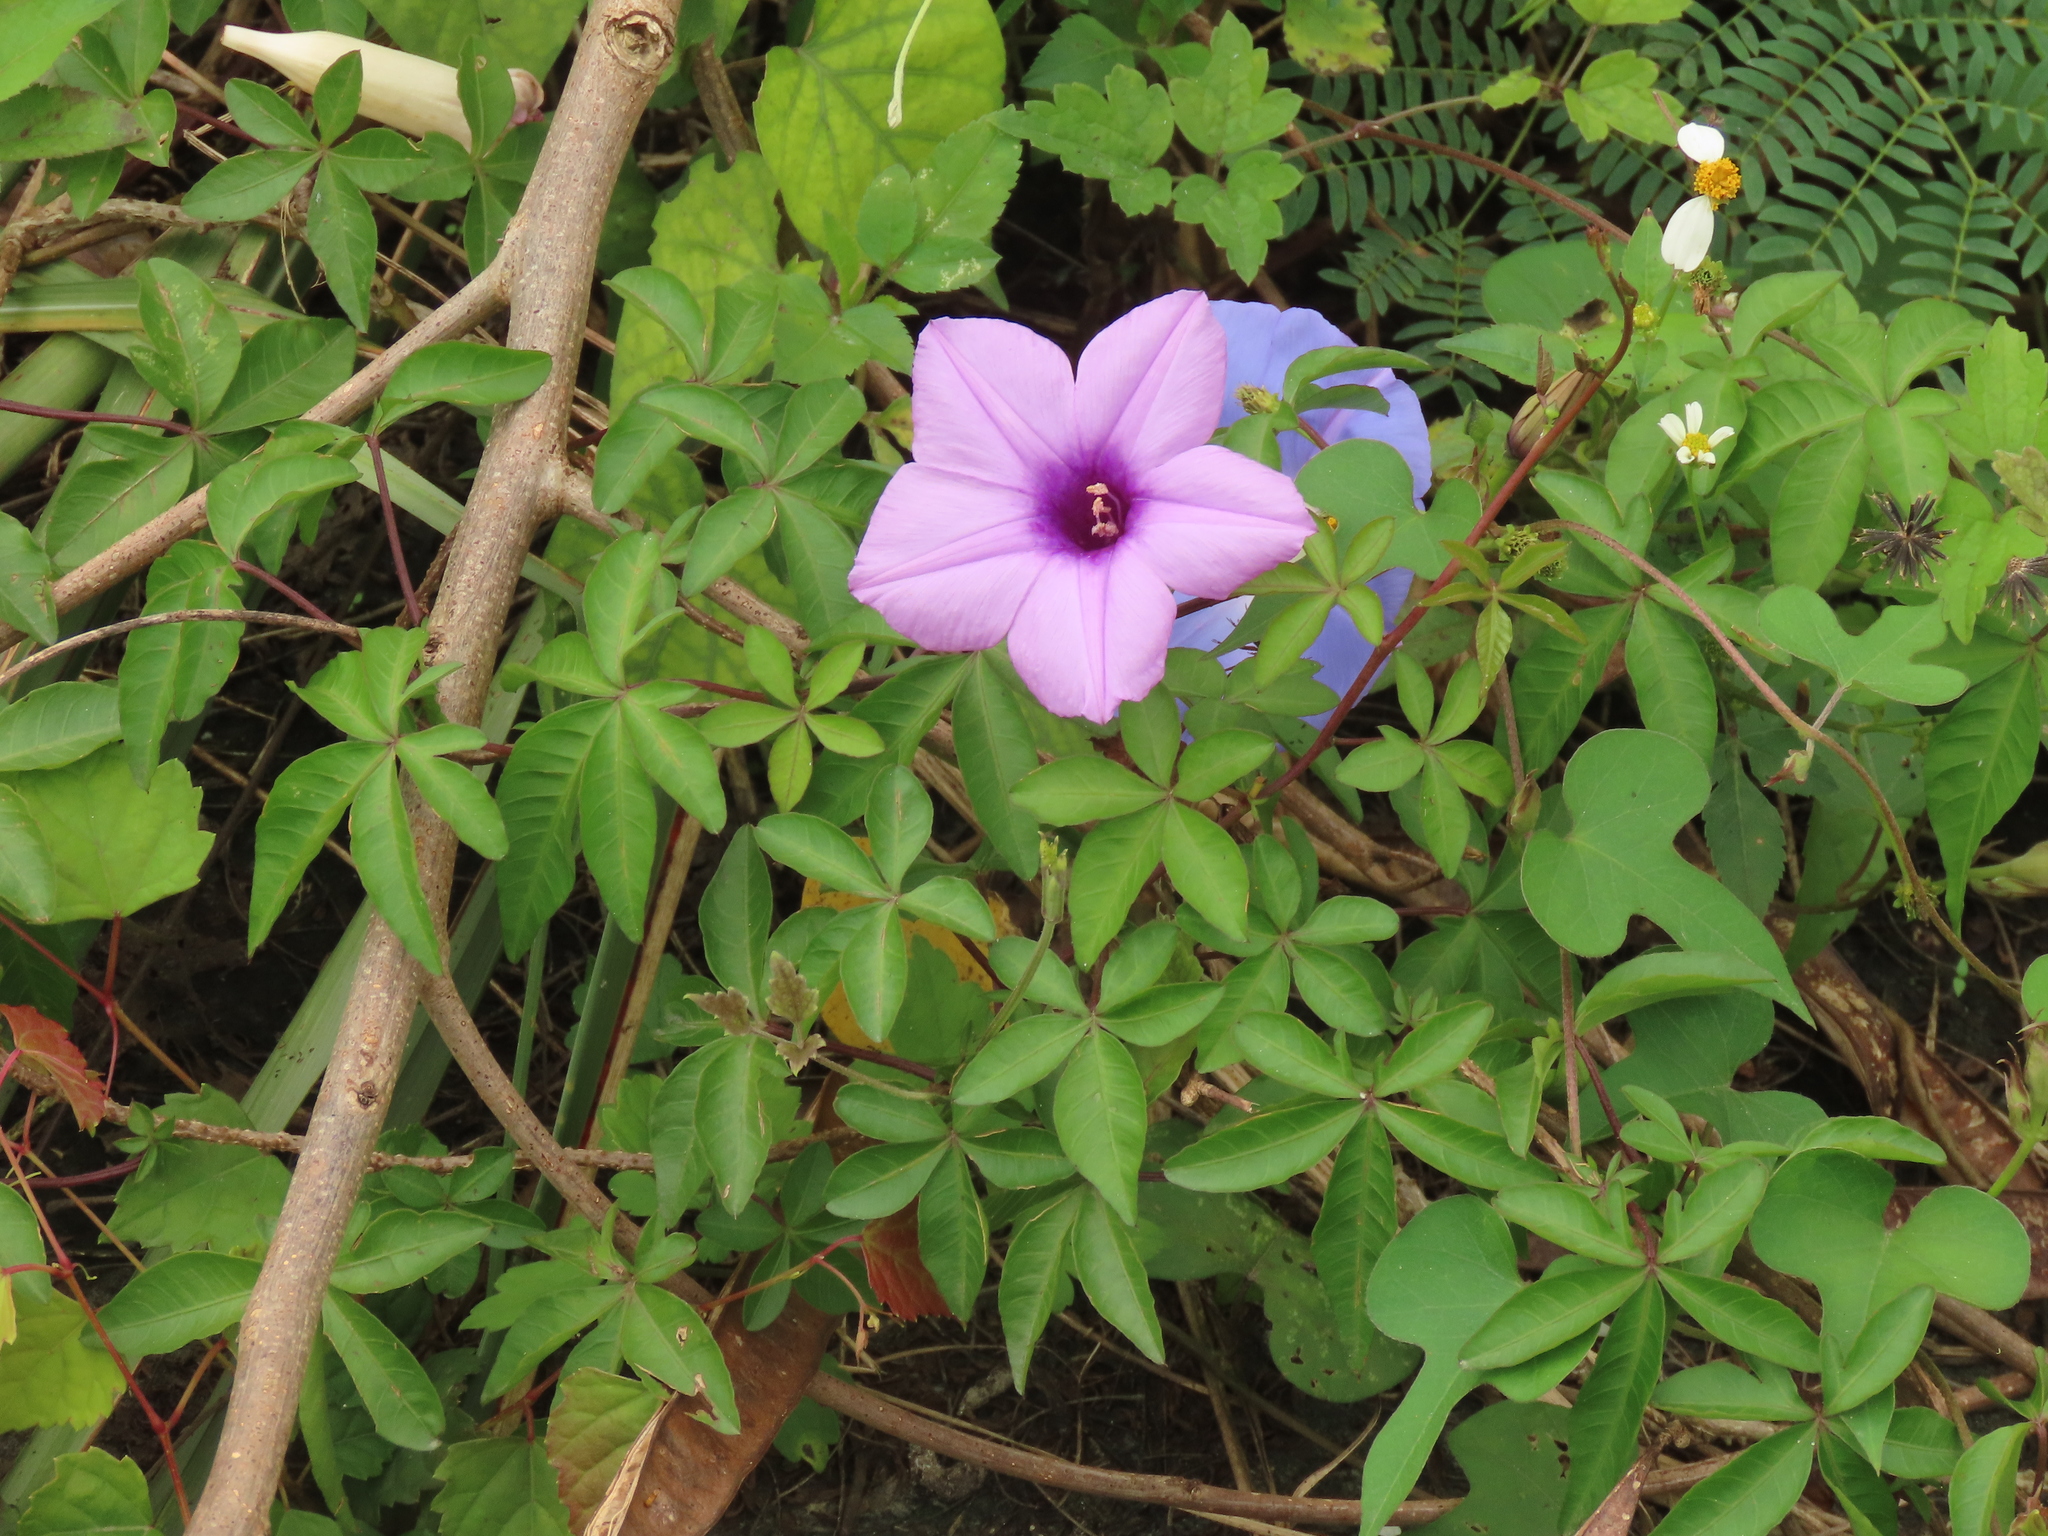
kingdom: Plantae
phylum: Tracheophyta
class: Magnoliopsida
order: Solanales
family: Convolvulaceae
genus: Ipomoea
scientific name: Ipomoea cairica
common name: Mile a minute vine
